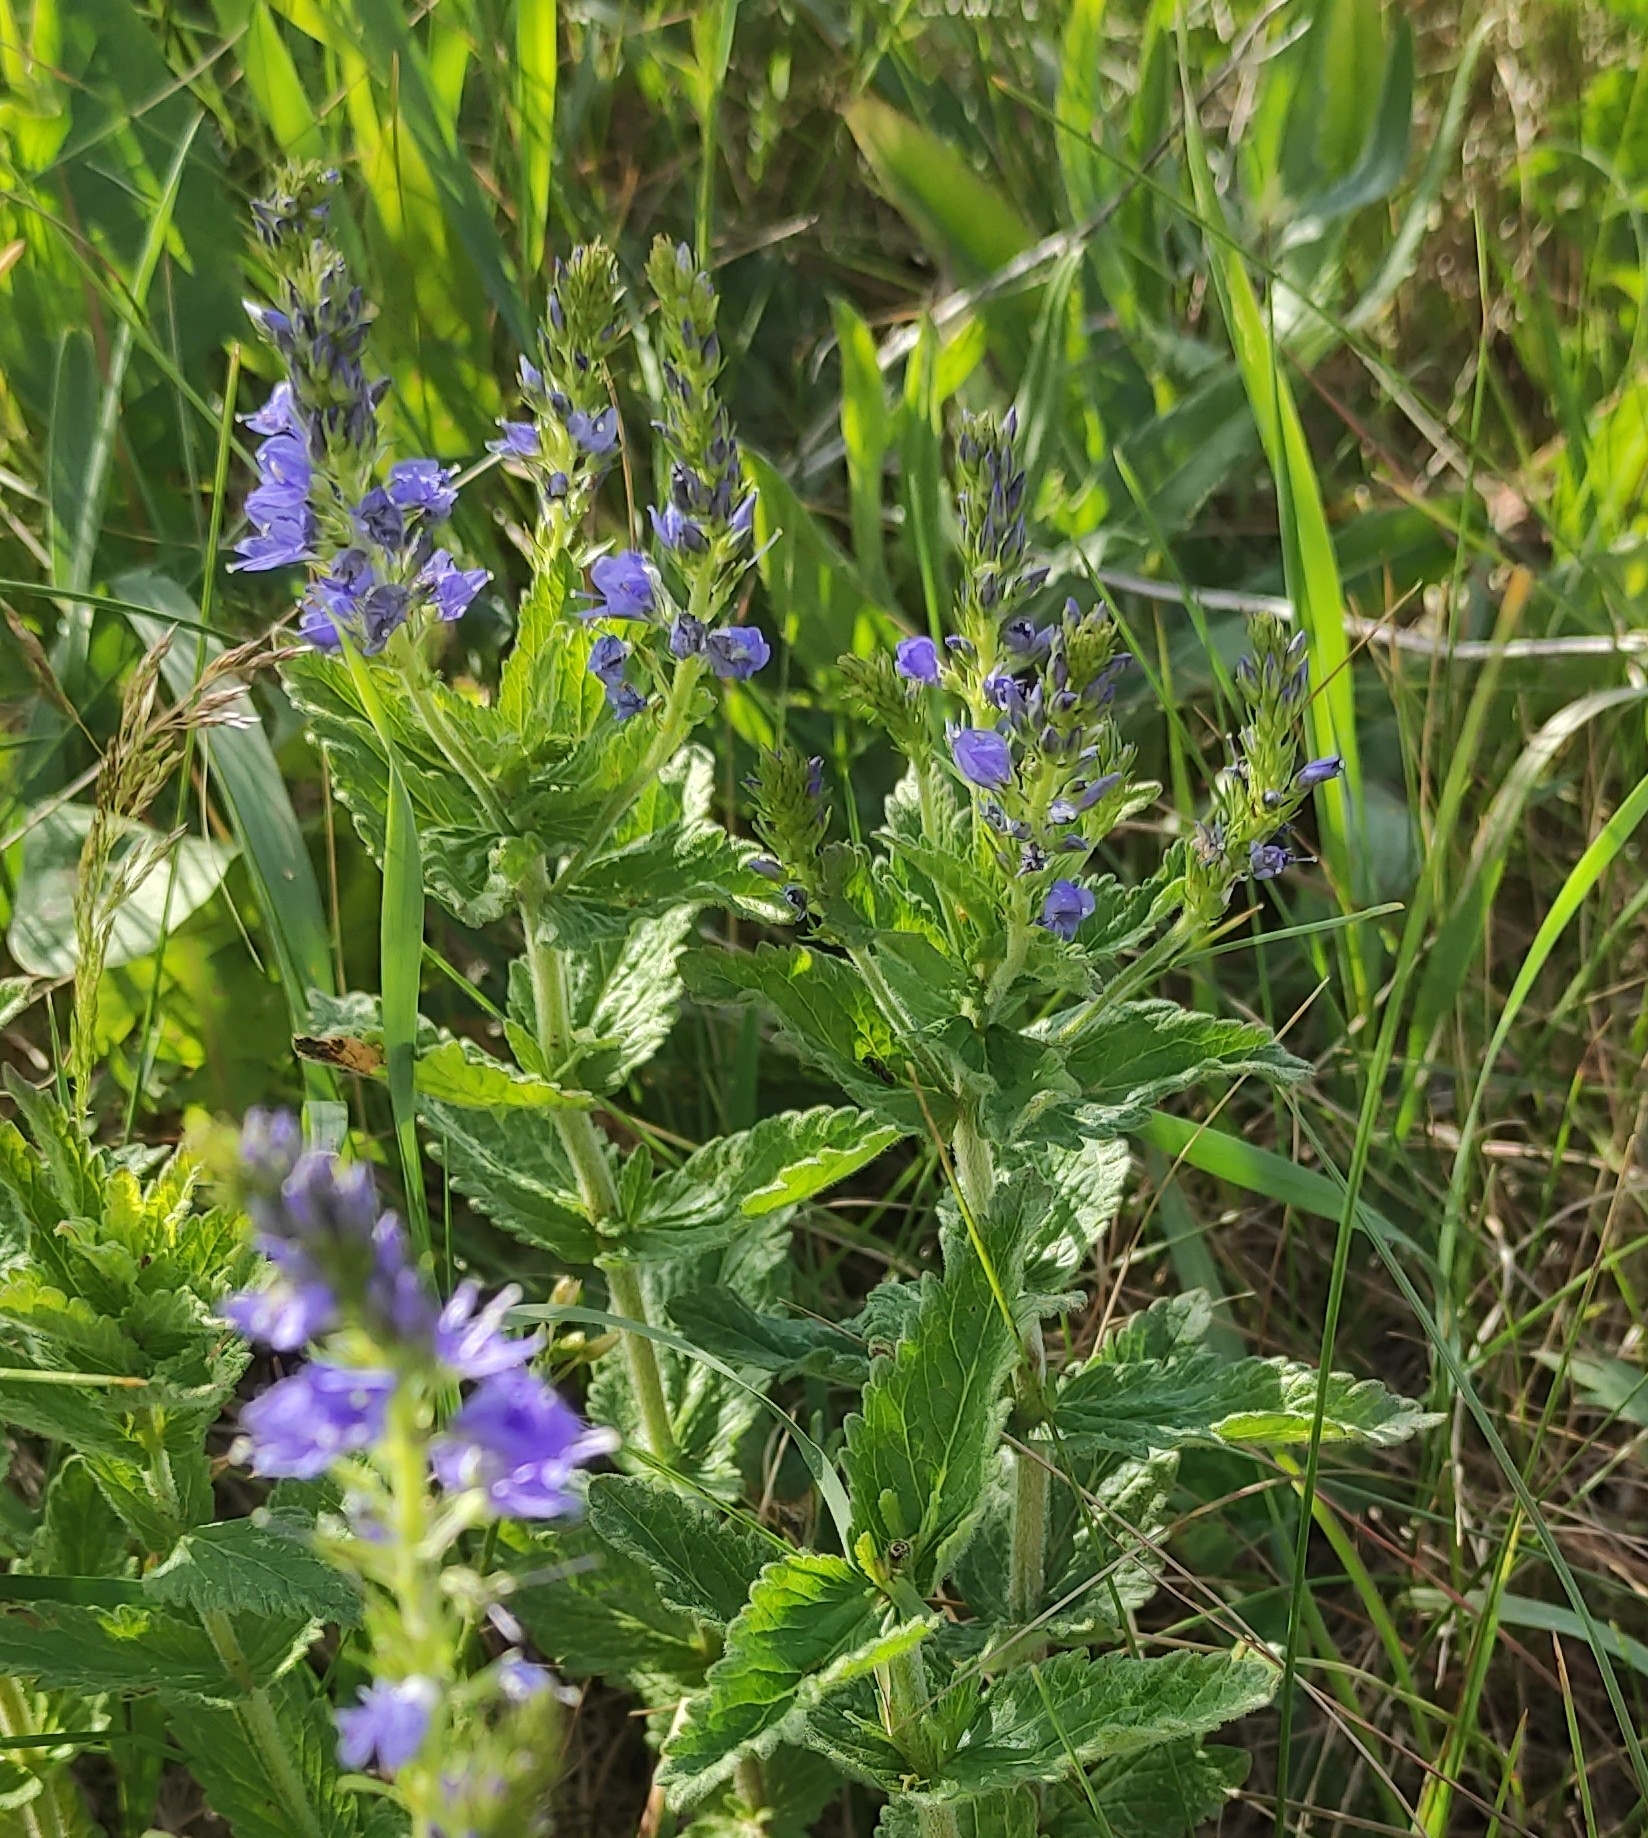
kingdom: Plantae
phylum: Tracheophyta
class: Magnoliopsida
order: Lamiales
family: Plantaginaceae
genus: Veronica
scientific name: Veronica teucrium
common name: Large speedwell
